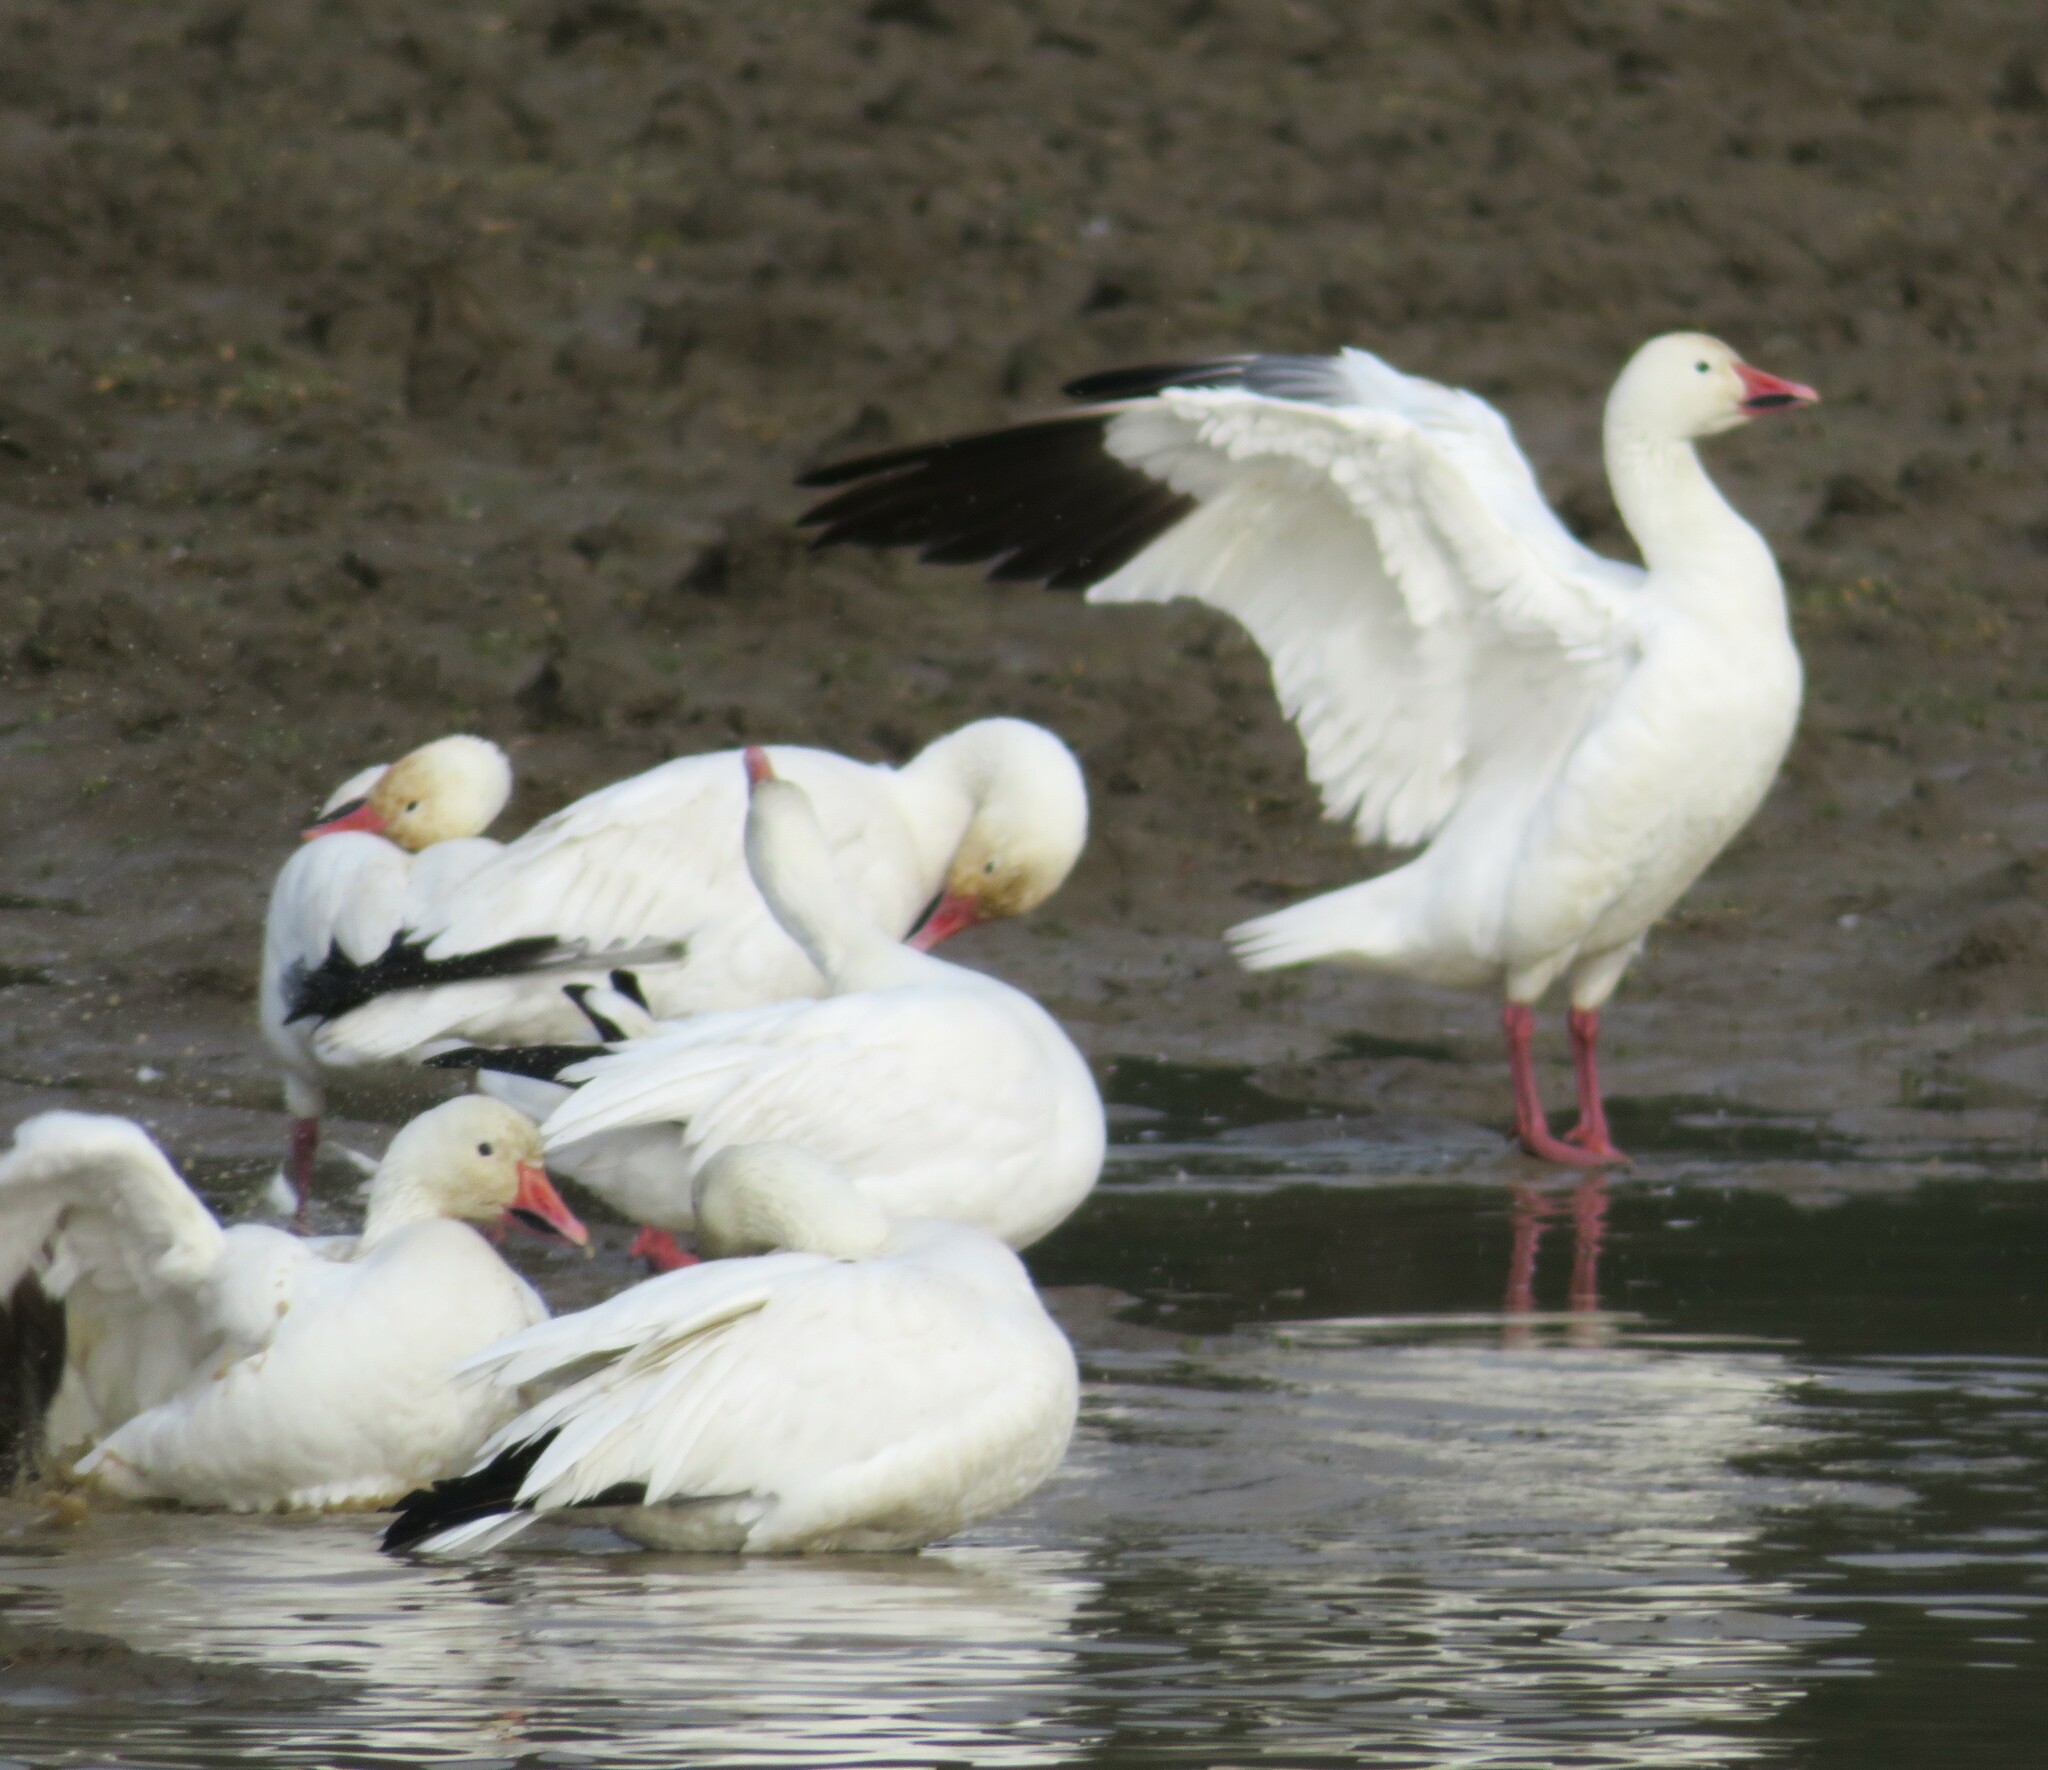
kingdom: Animalia
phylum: Chordata
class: Aves
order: Anseriformes
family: Anatidae
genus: Anser
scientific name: Anser caerulescens
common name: Snow goose
